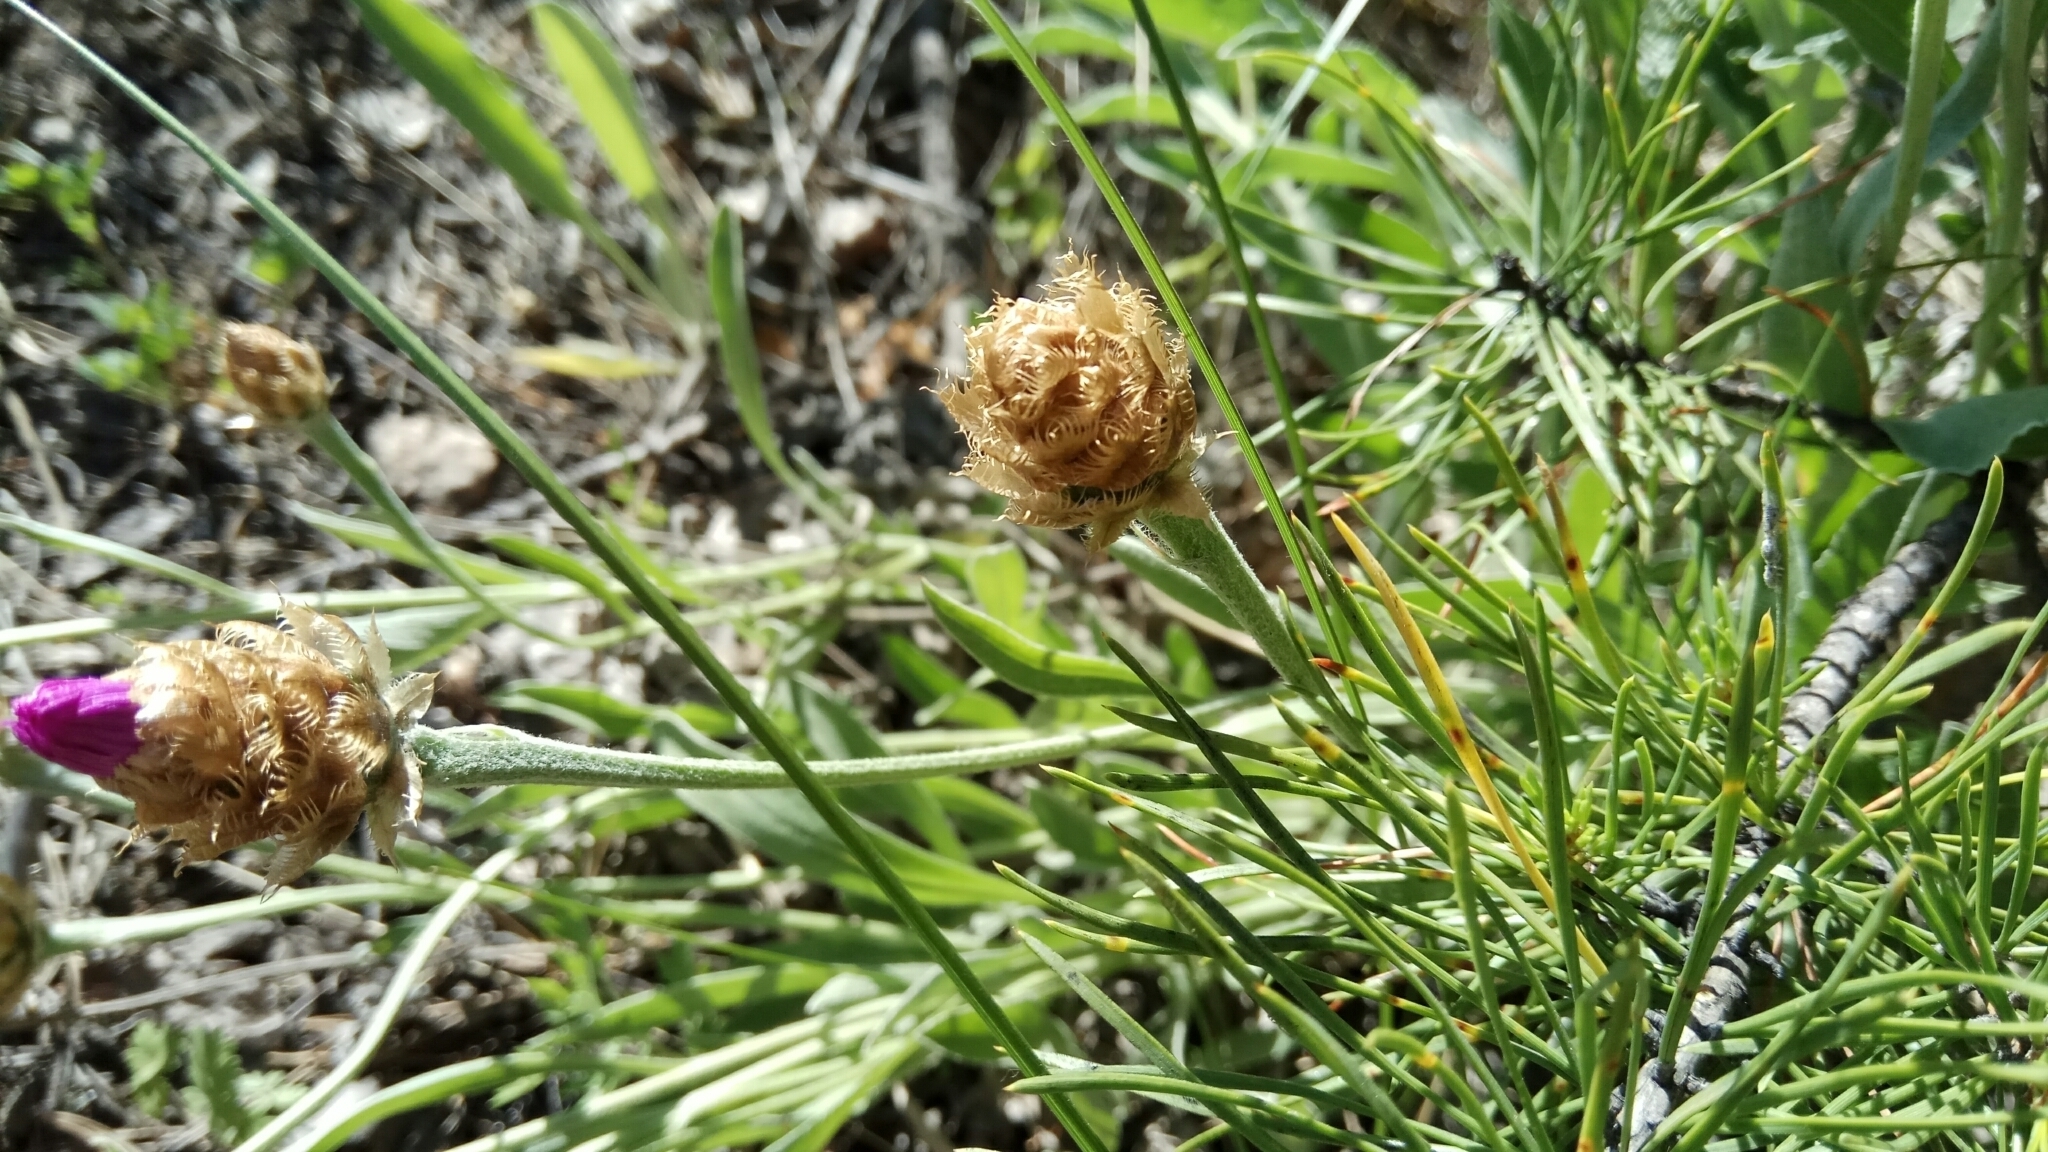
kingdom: Plantae
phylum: Tracheophyta
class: Magnoliopsida
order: Asterales
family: Asteraceae
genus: Psephellus
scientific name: Psephellus sibiricus
